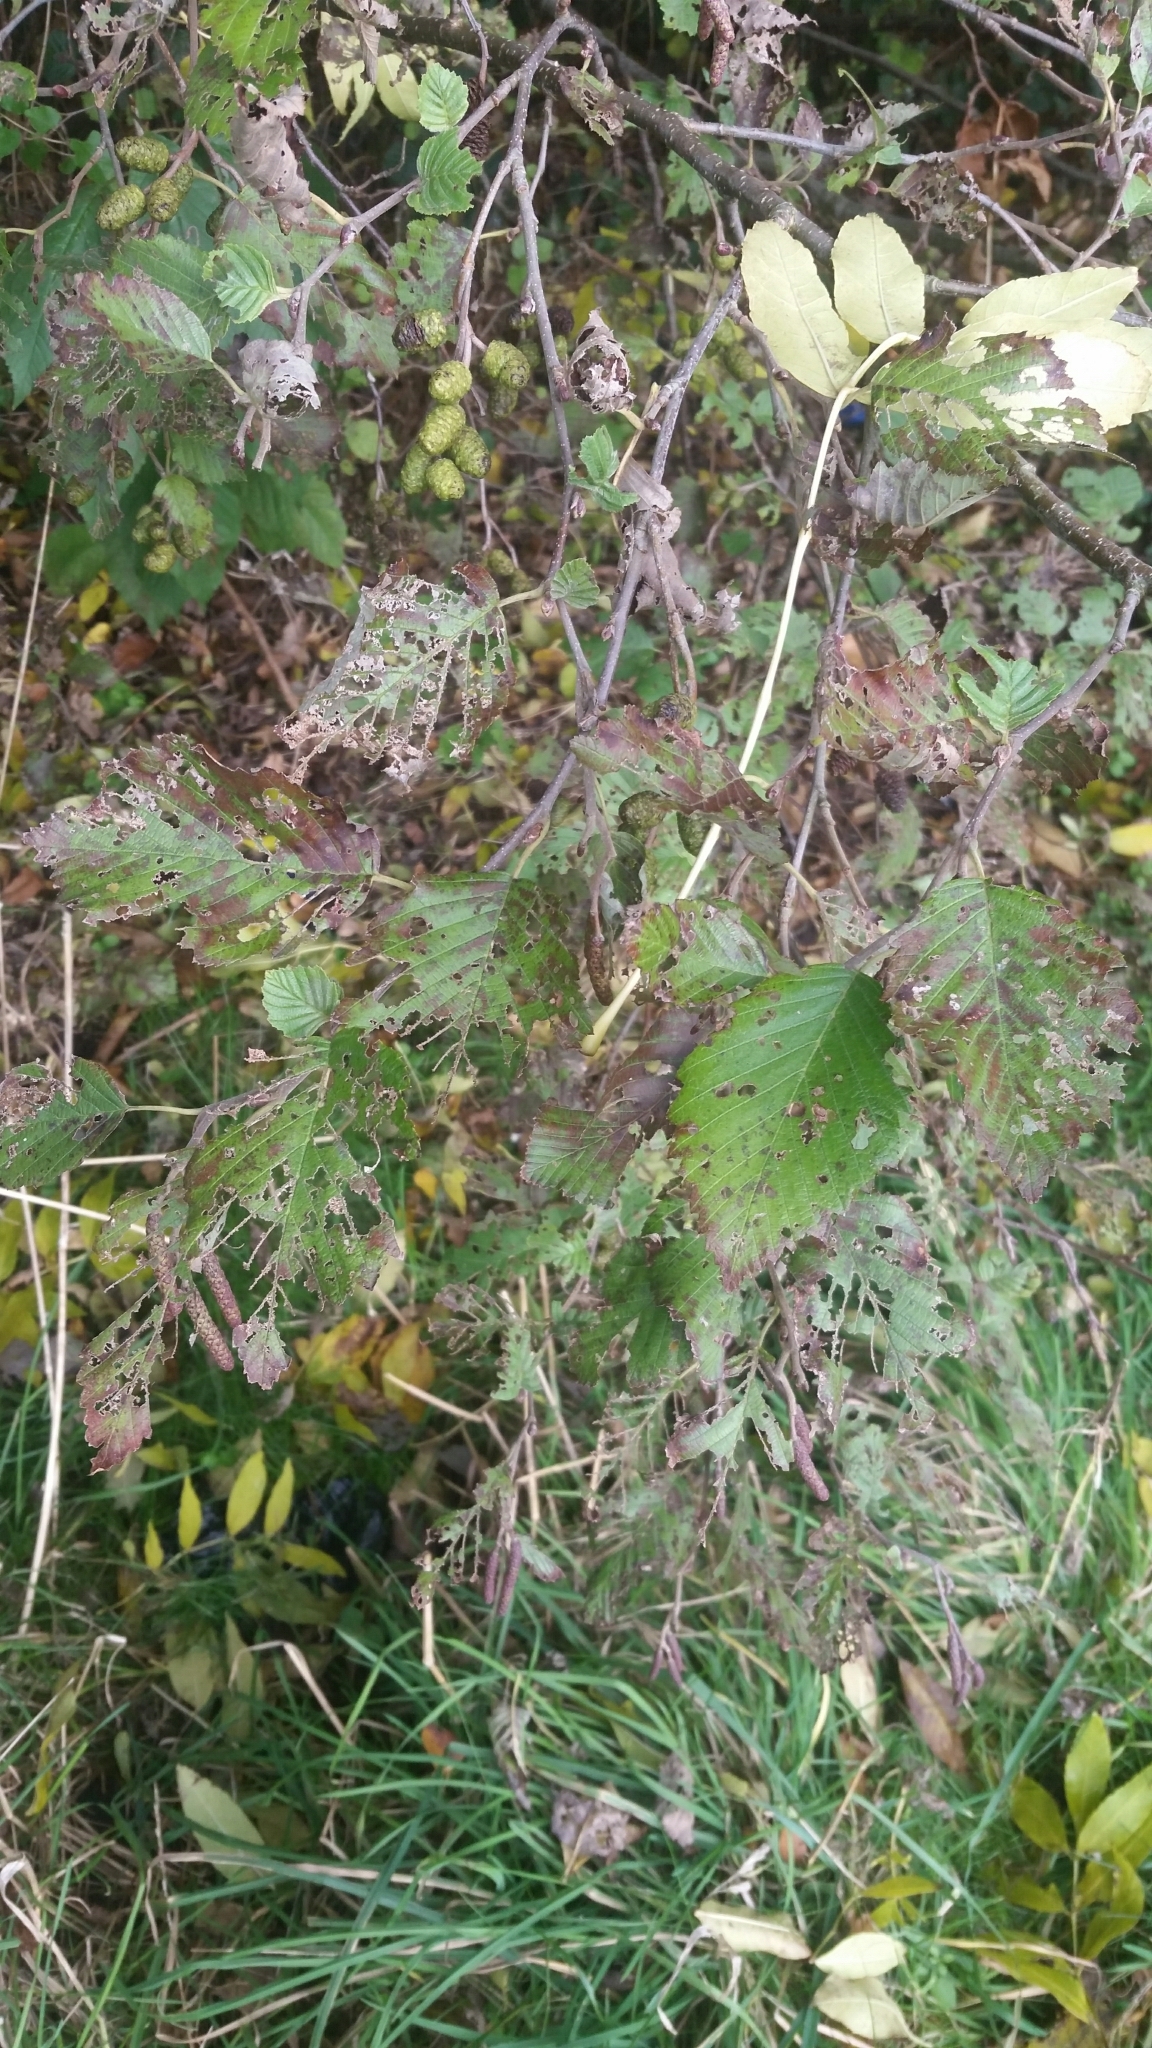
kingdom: Plantae
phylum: Tracheophyta
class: Magnoliopsida
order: Fagales
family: Betulaceae
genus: Alnus
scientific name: Alnus incana
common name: Grey alder
